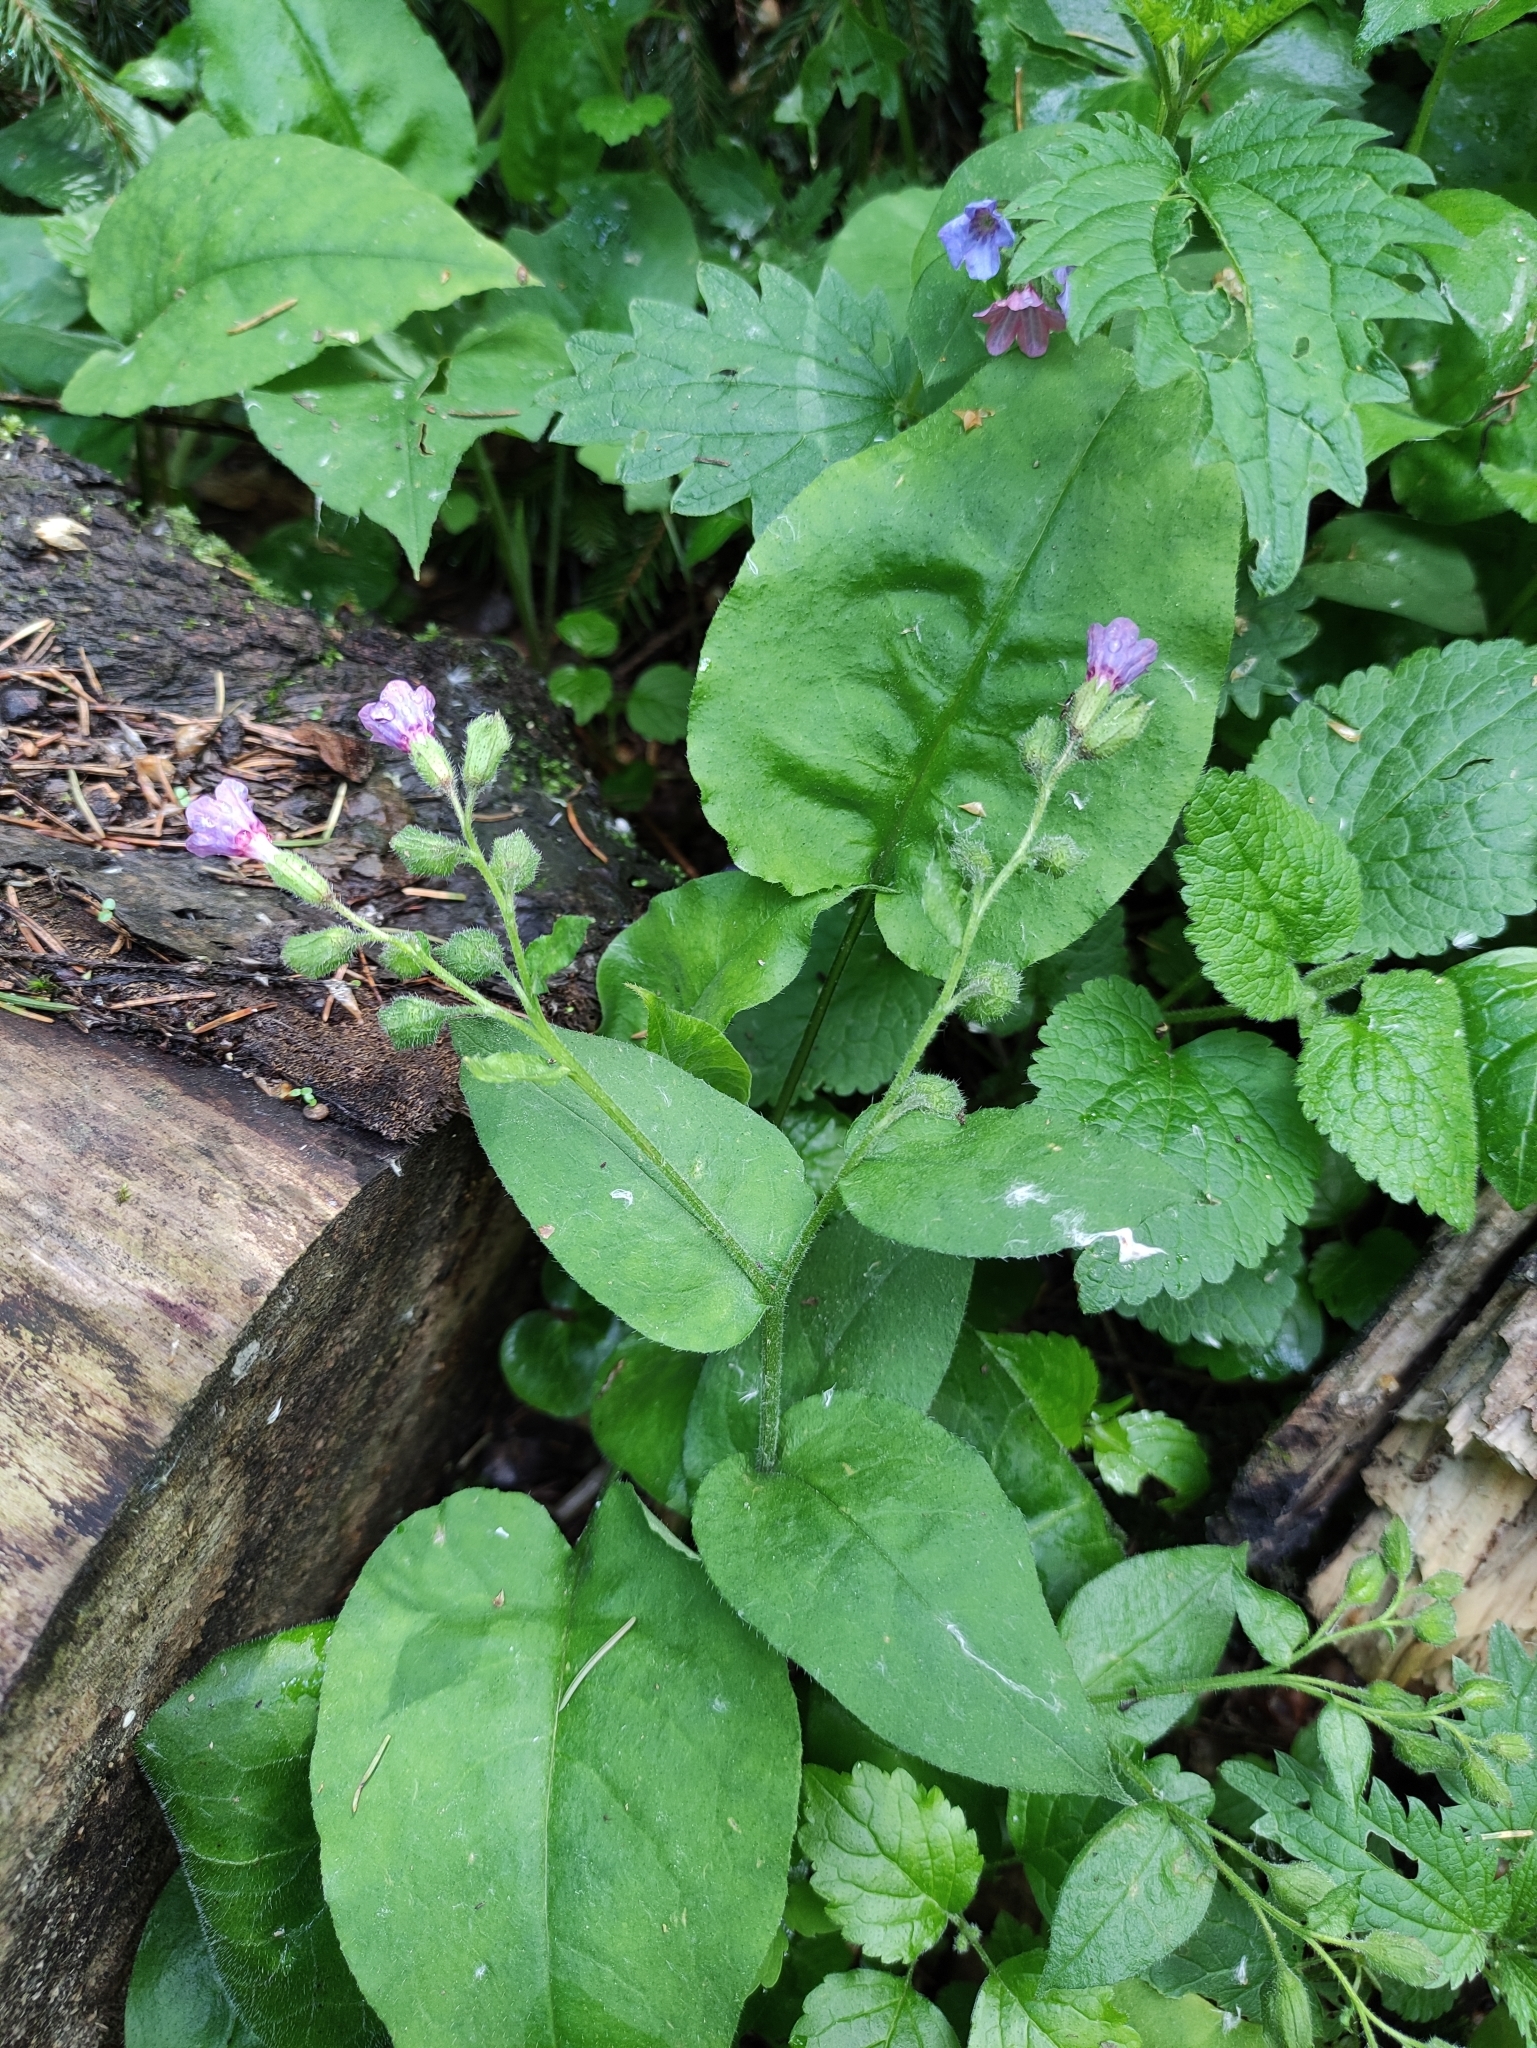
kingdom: Plantae
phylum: Tracheophyta
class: Magnoliopsida
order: Boraginales
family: Boraginaceae
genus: Pulmonaria
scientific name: Pulmonaria obscura
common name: Suffolk lungwort
